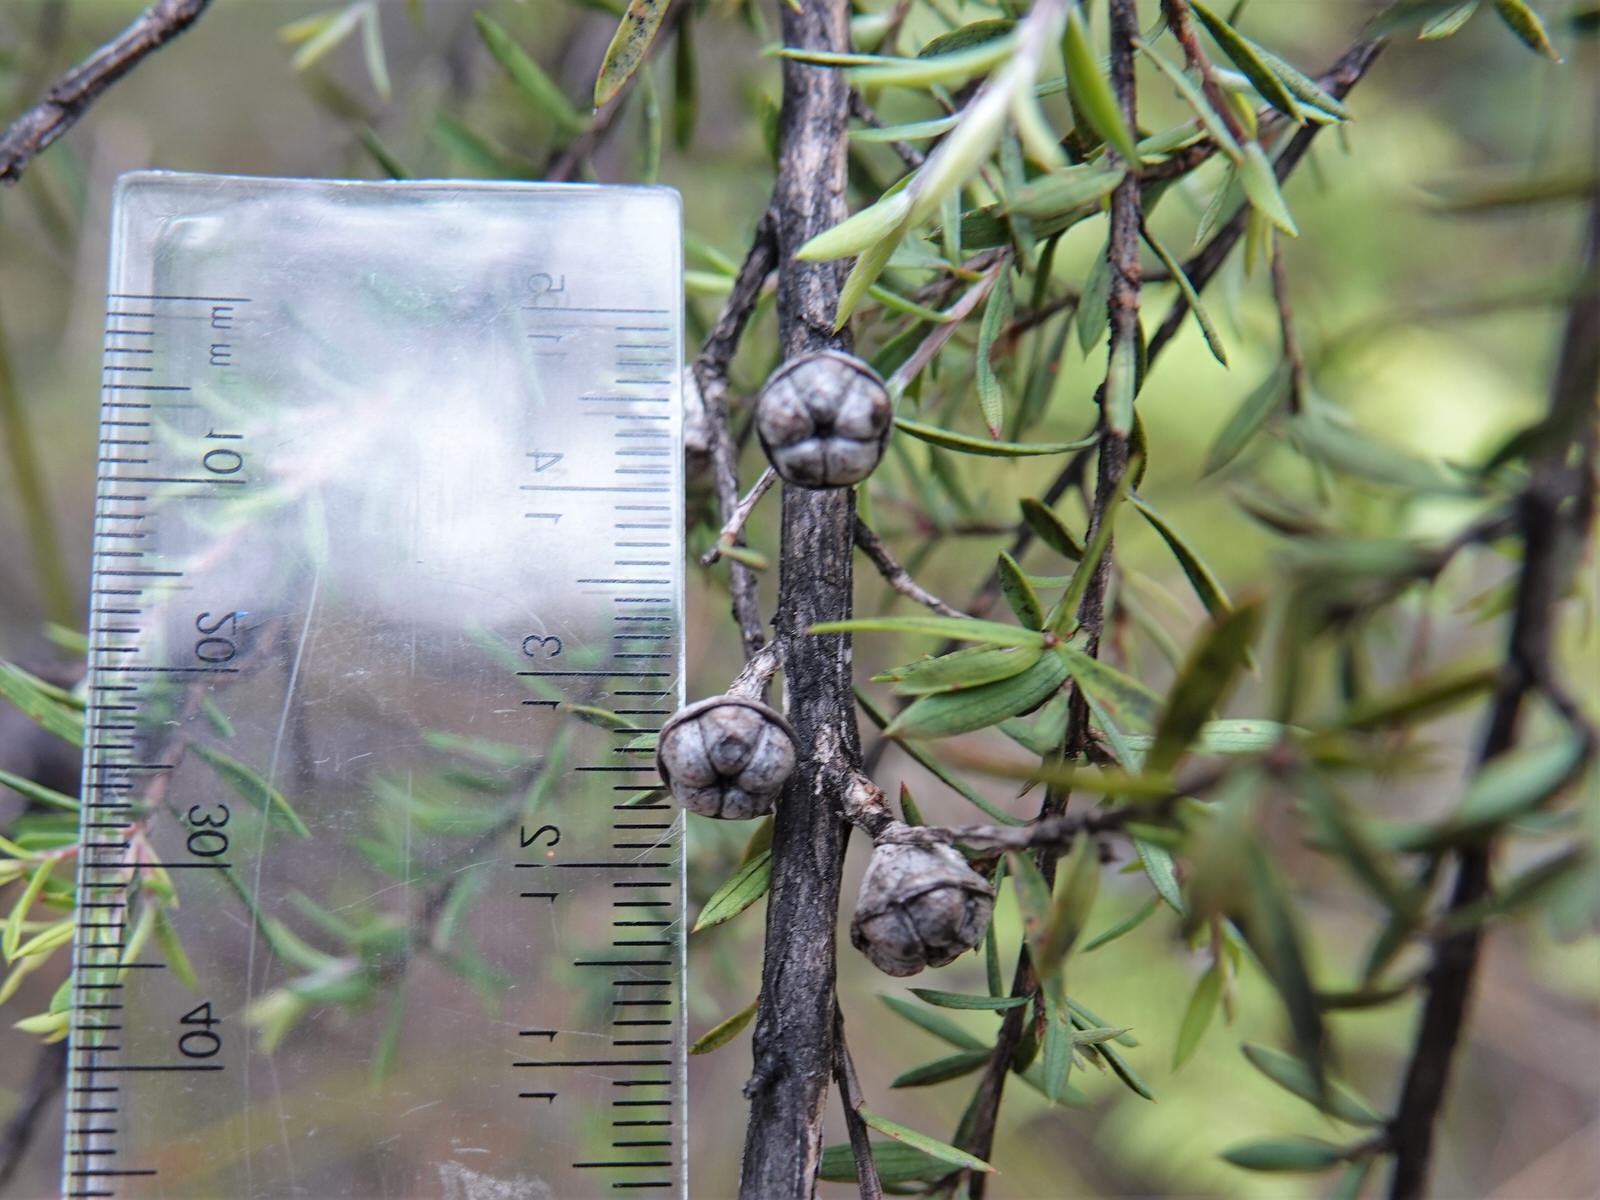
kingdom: Plantae
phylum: Tracheophyta
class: Magnoliopsida
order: Myrtales
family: Myrtaceae
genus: Leptospermum
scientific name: Leptospermum scoparium
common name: Broom tea-tree
